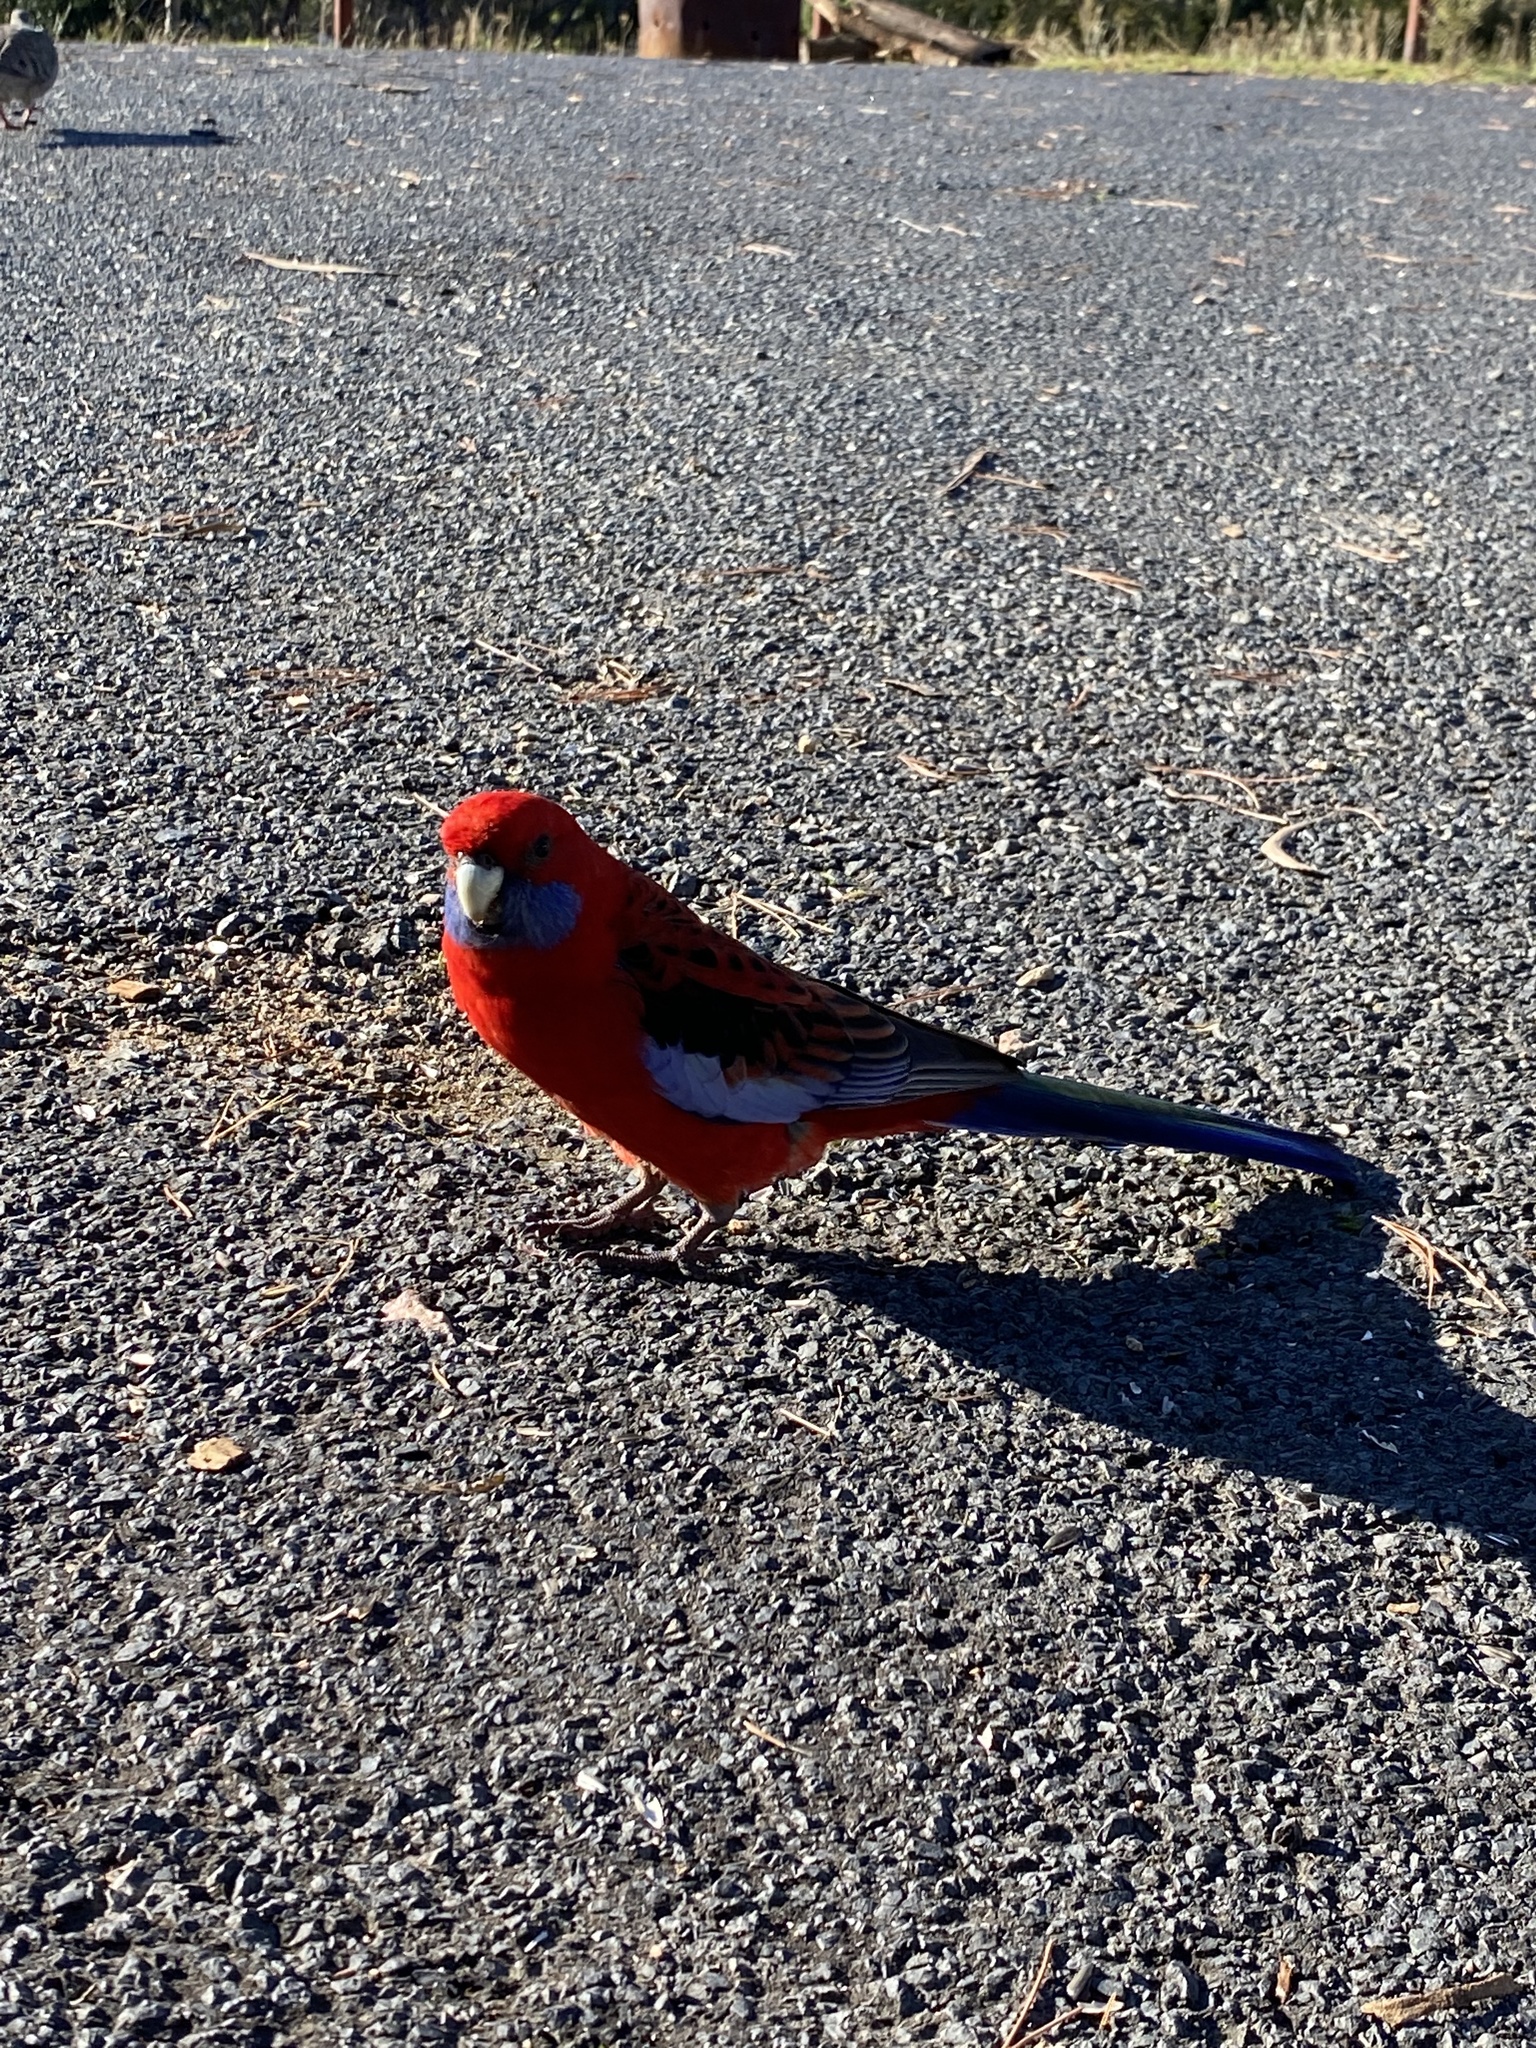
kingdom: Animalia
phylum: Chordata
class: Aves
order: Psittaciformes
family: Psittacidae
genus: Platycercus
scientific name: Platycercus elegans
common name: Crimson rosella
